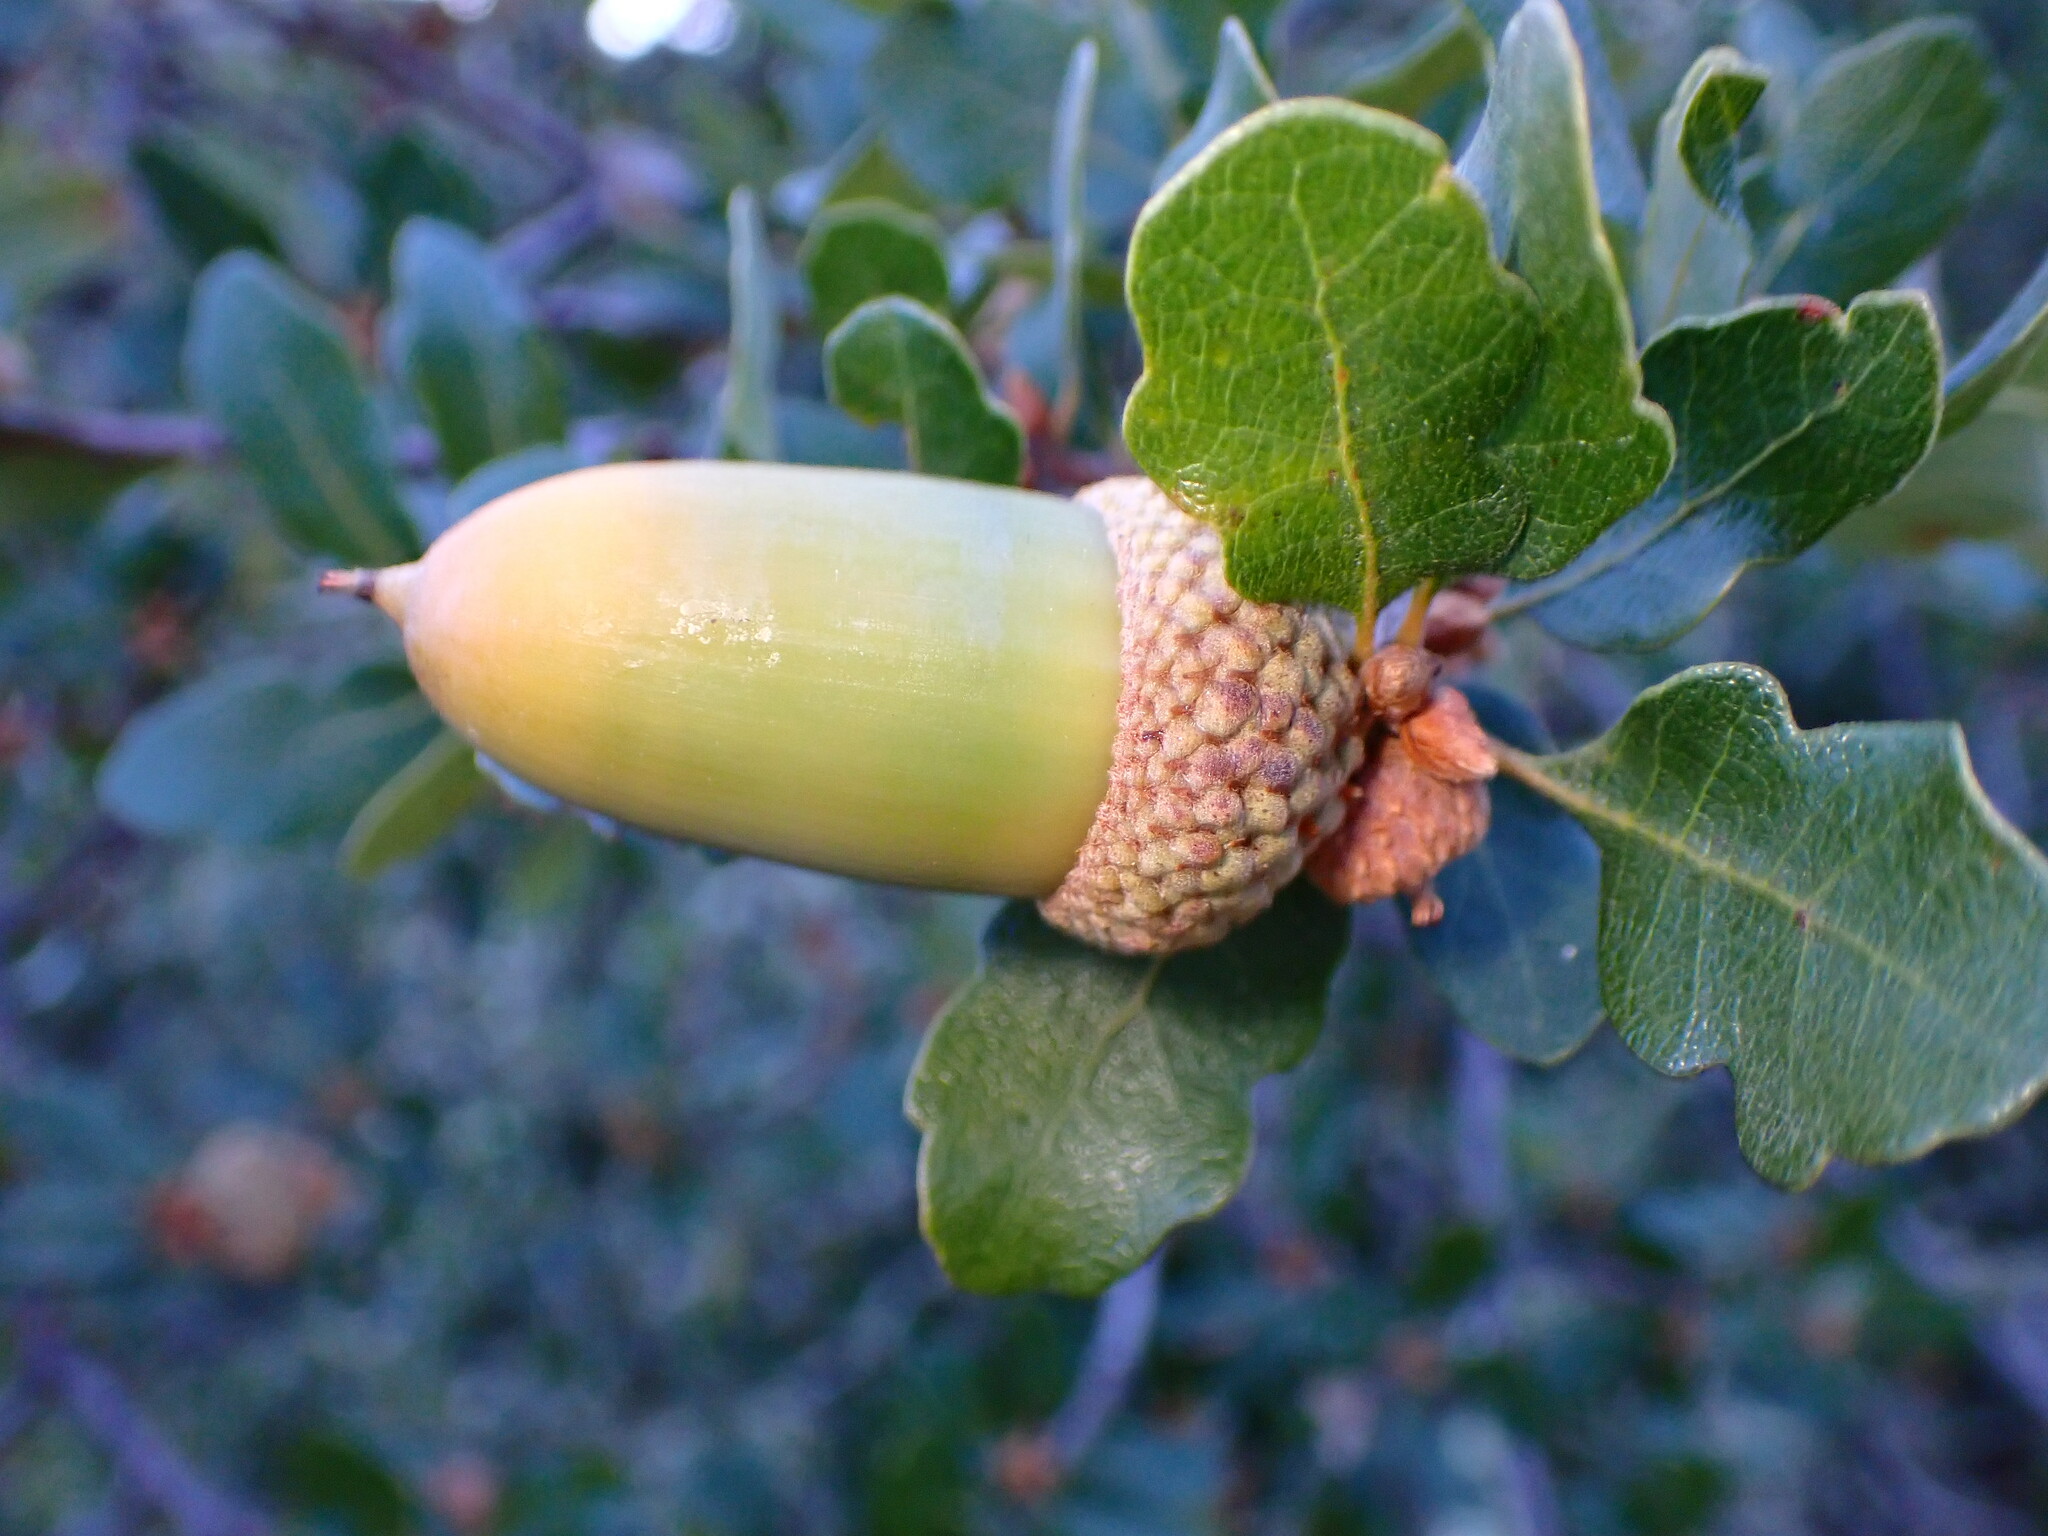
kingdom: Plantae
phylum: Tracheophyta
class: Magnoliopsida
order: Fagales
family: Fagaceae
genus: Quercus
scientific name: Quercus douglasii
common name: Blue oak
